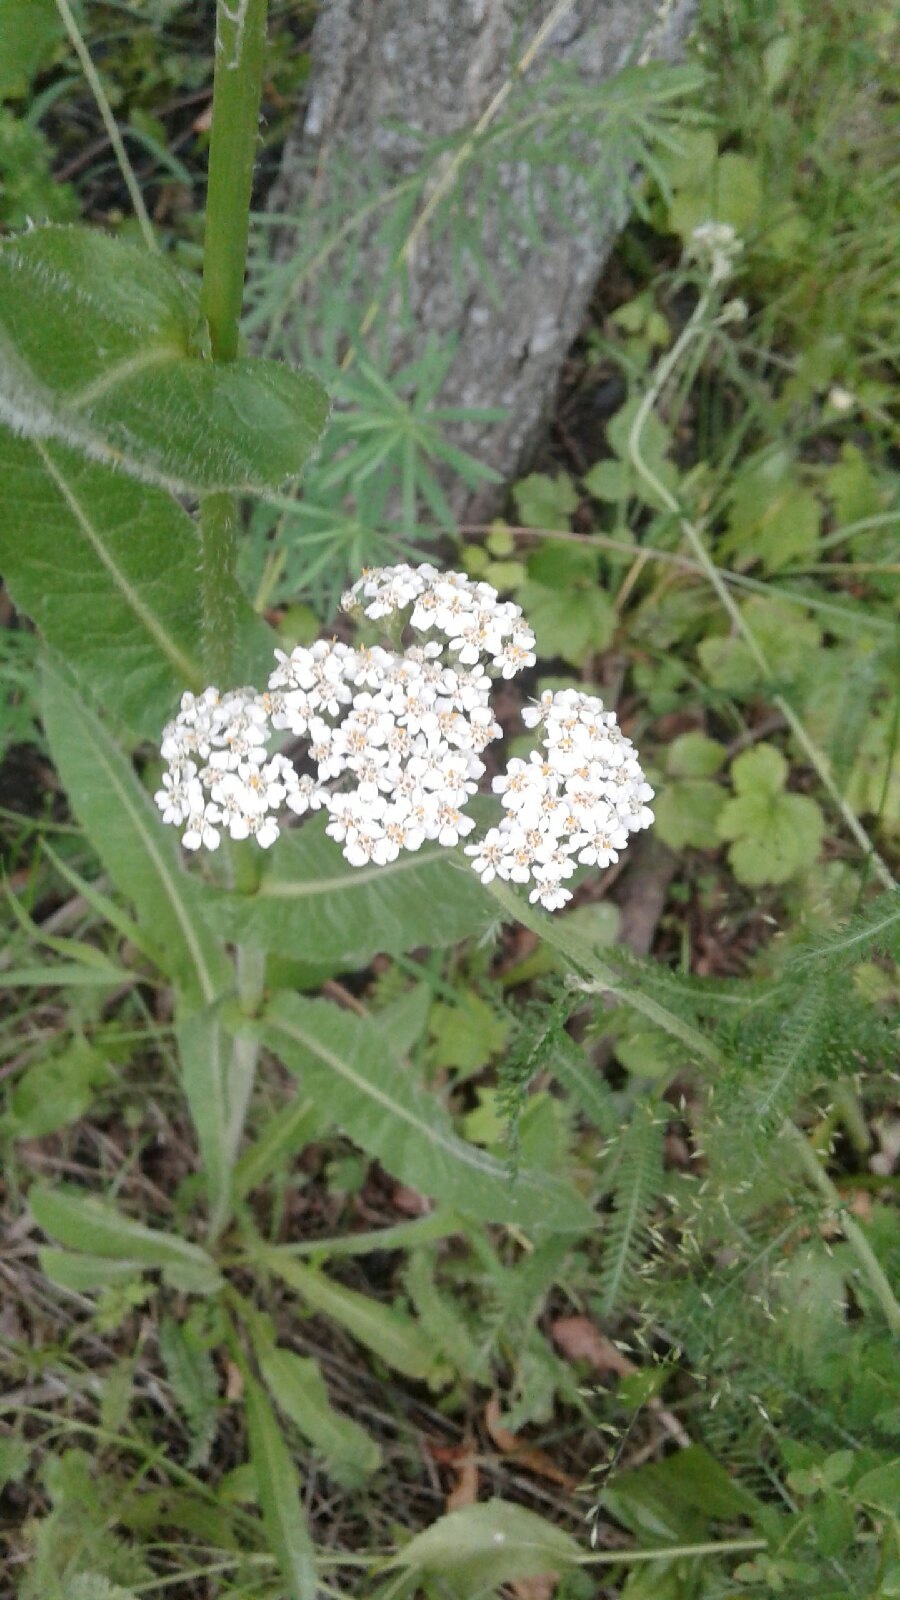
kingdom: Plantae
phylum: Tracheophyta
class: Magnoliopsida
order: Asterales
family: Asteraceae
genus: Achillea
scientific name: Achillea millefolium
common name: Yarrow
